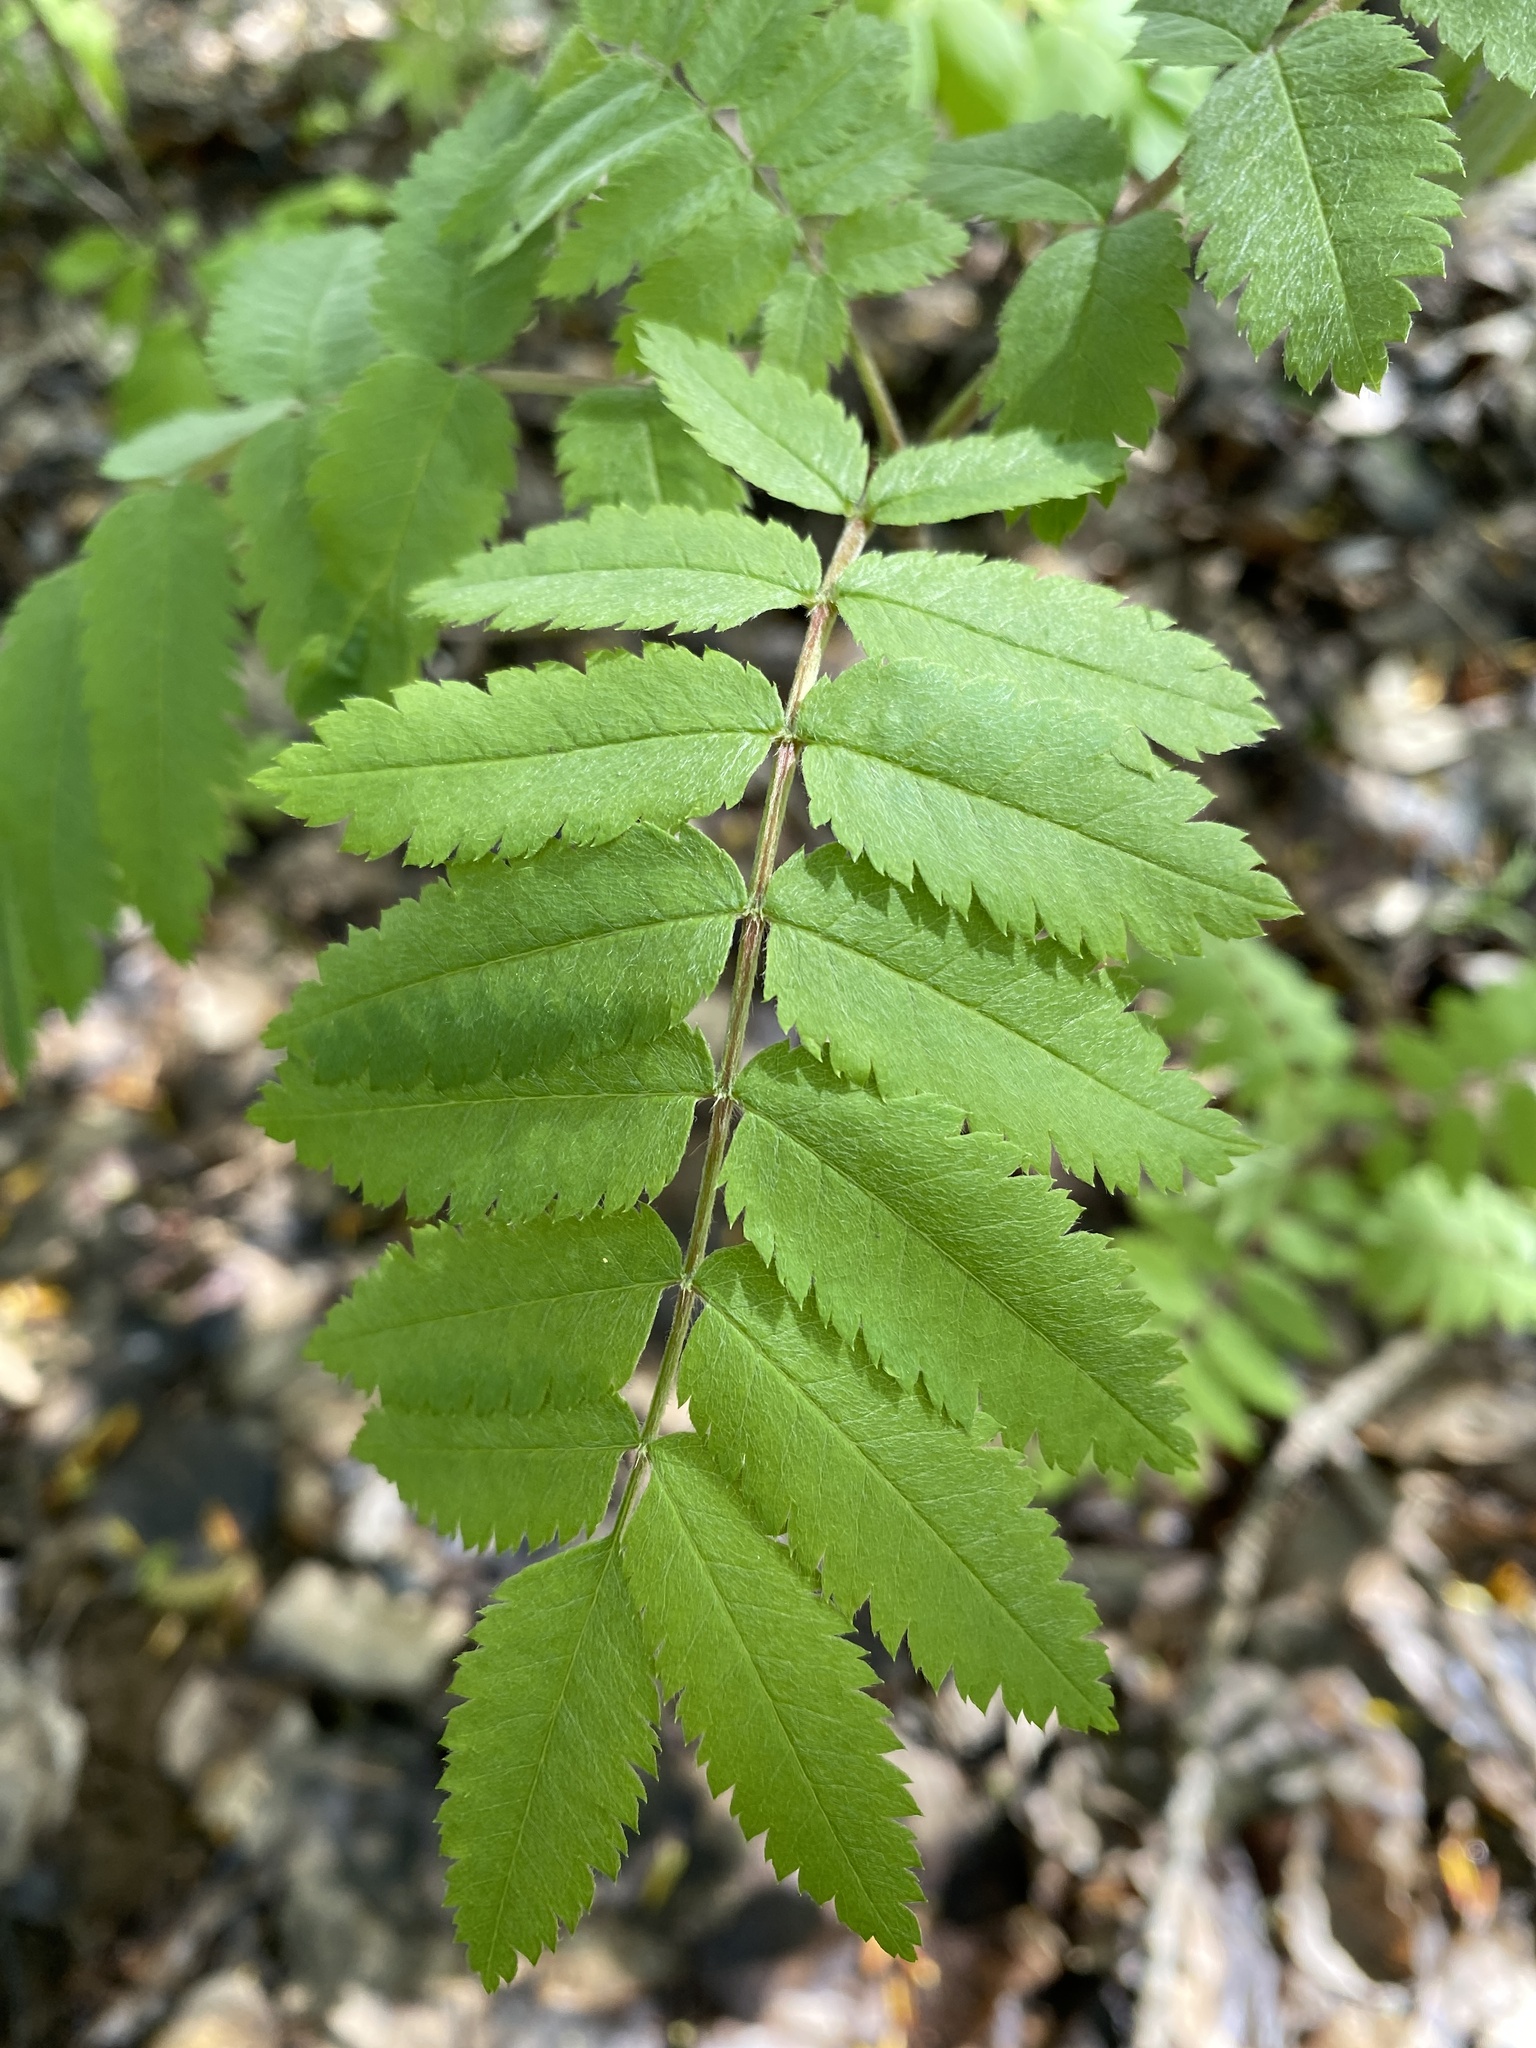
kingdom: Plantae
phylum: Tracheophyta
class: Magnoliopsida
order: Rosales
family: Rosaceae
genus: Sorbus
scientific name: Sorbus aucuparia
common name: Rowan
